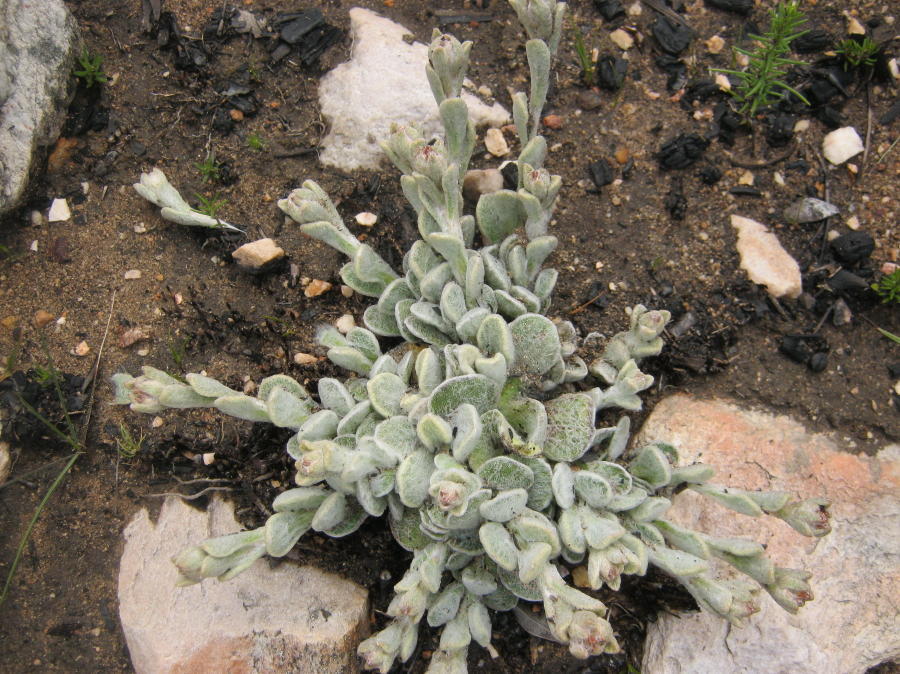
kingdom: Plantae
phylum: Tracheophyta
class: Magnoliopsida
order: Asterales
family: Asteraceae
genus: Helichrysum
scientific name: Helichrysum rotundifolium
